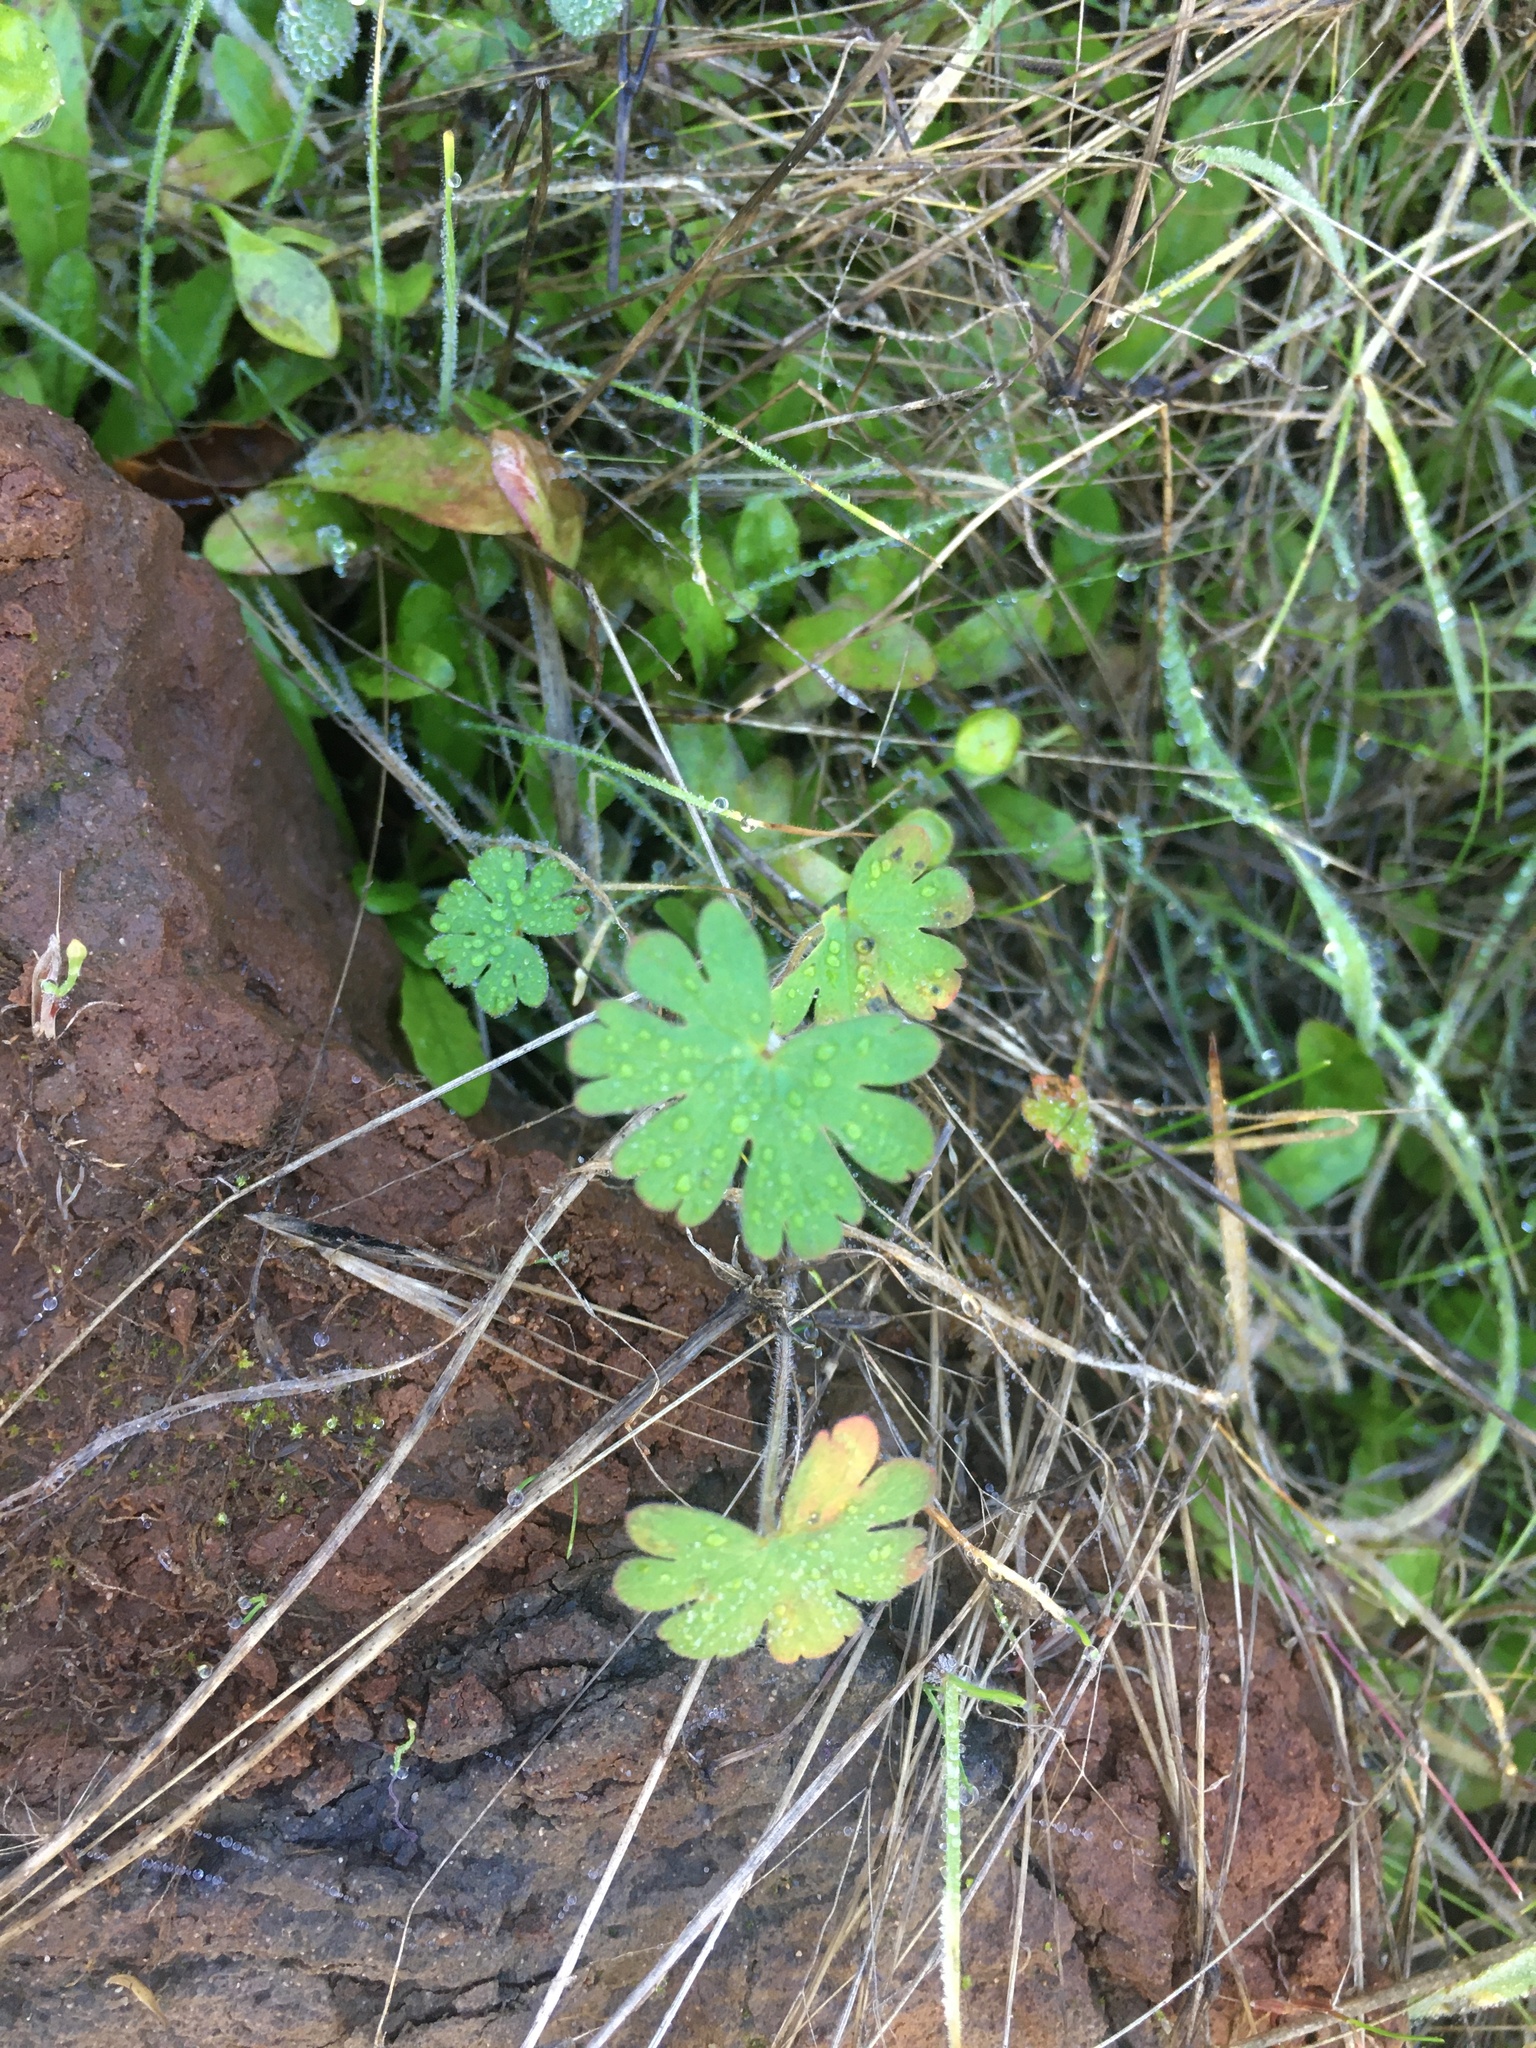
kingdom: Plantae
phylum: Tracheophyta
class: Magnoliopsida
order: Geraniales
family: Geraniaceae
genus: Geranium
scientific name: Geranium
